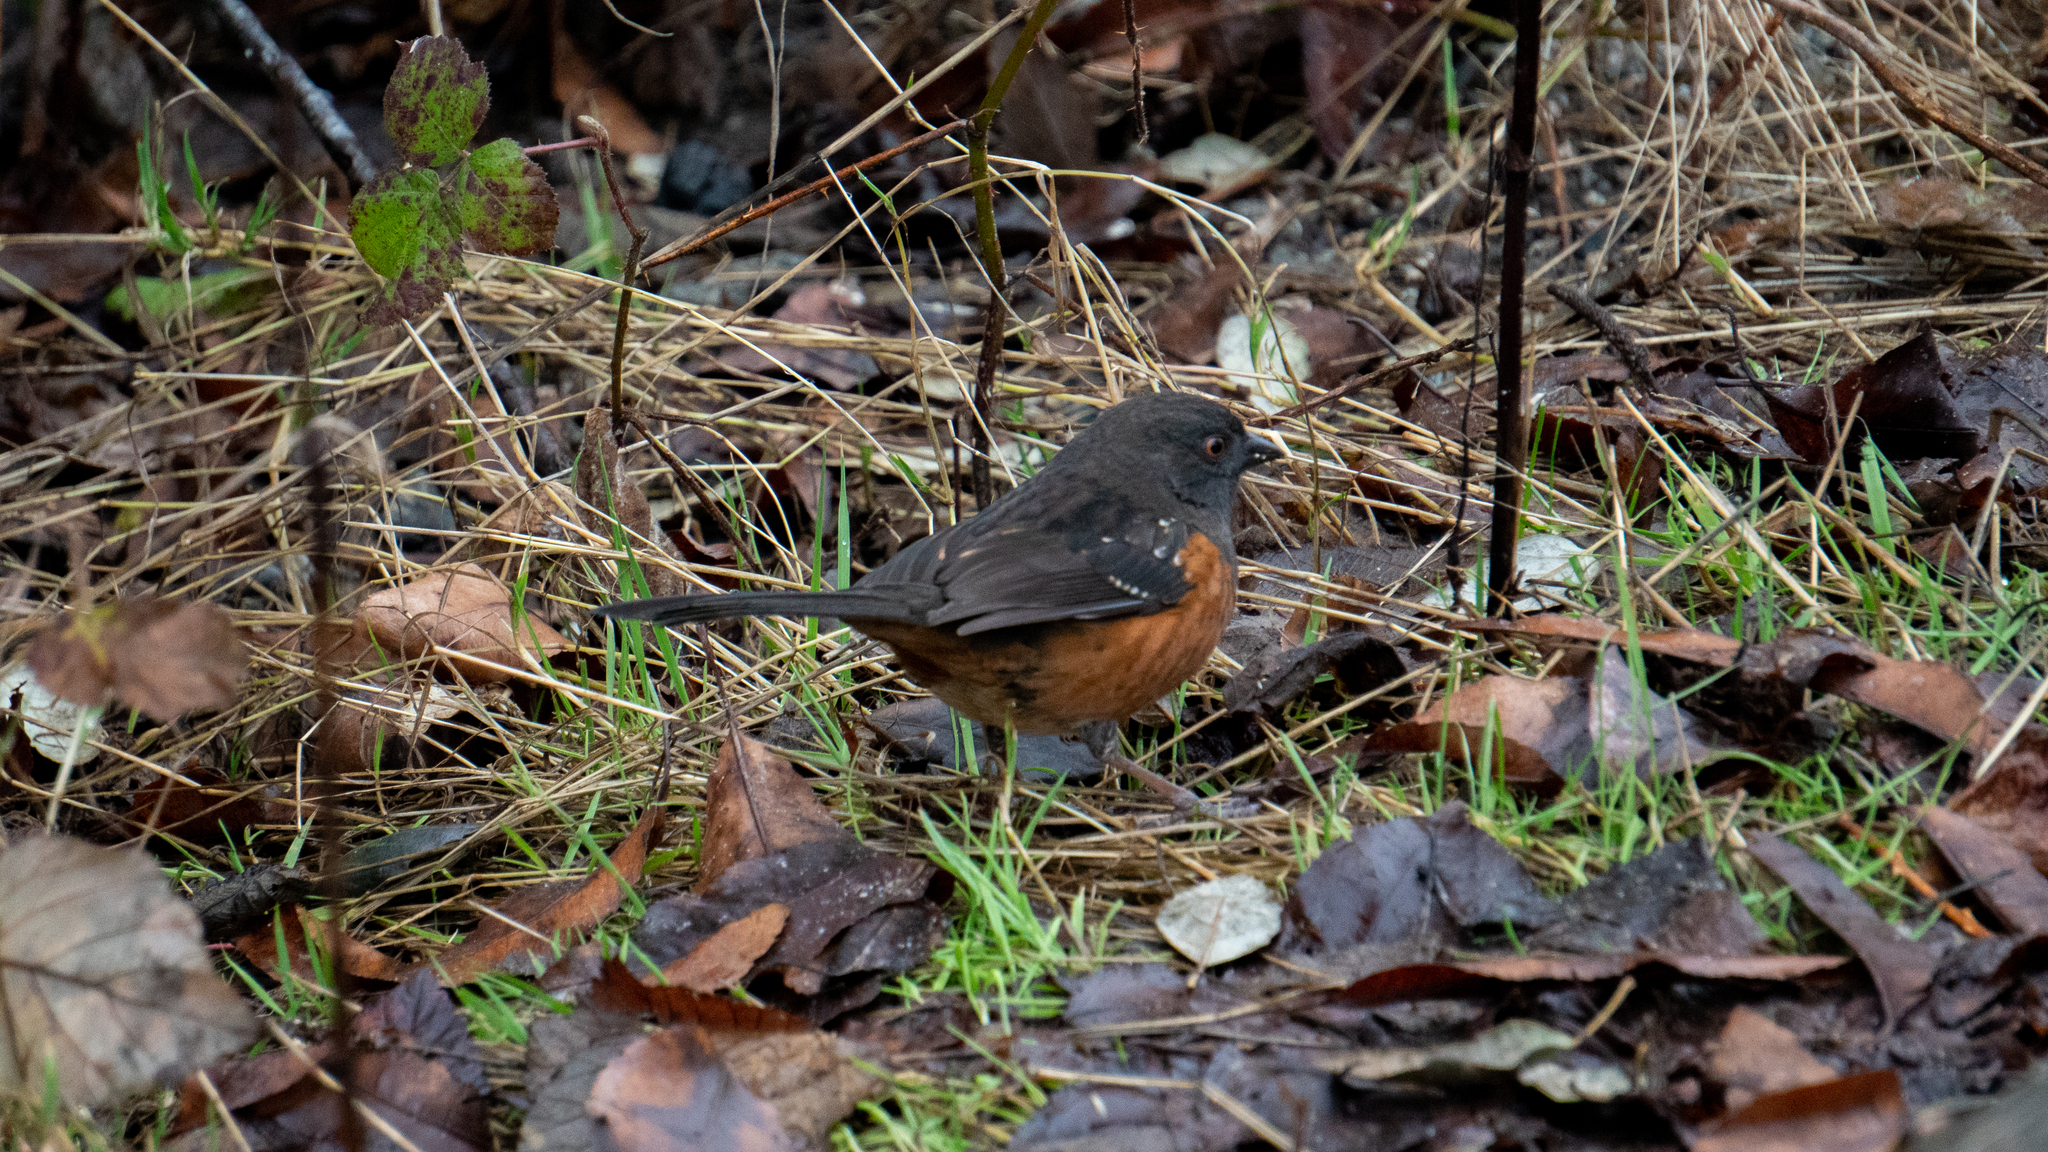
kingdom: Animalia
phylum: Chordata
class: Aves
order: Passeriformes
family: Passerellidae
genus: Pipilo
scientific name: Pipilo maculatus
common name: Spotted towhee
